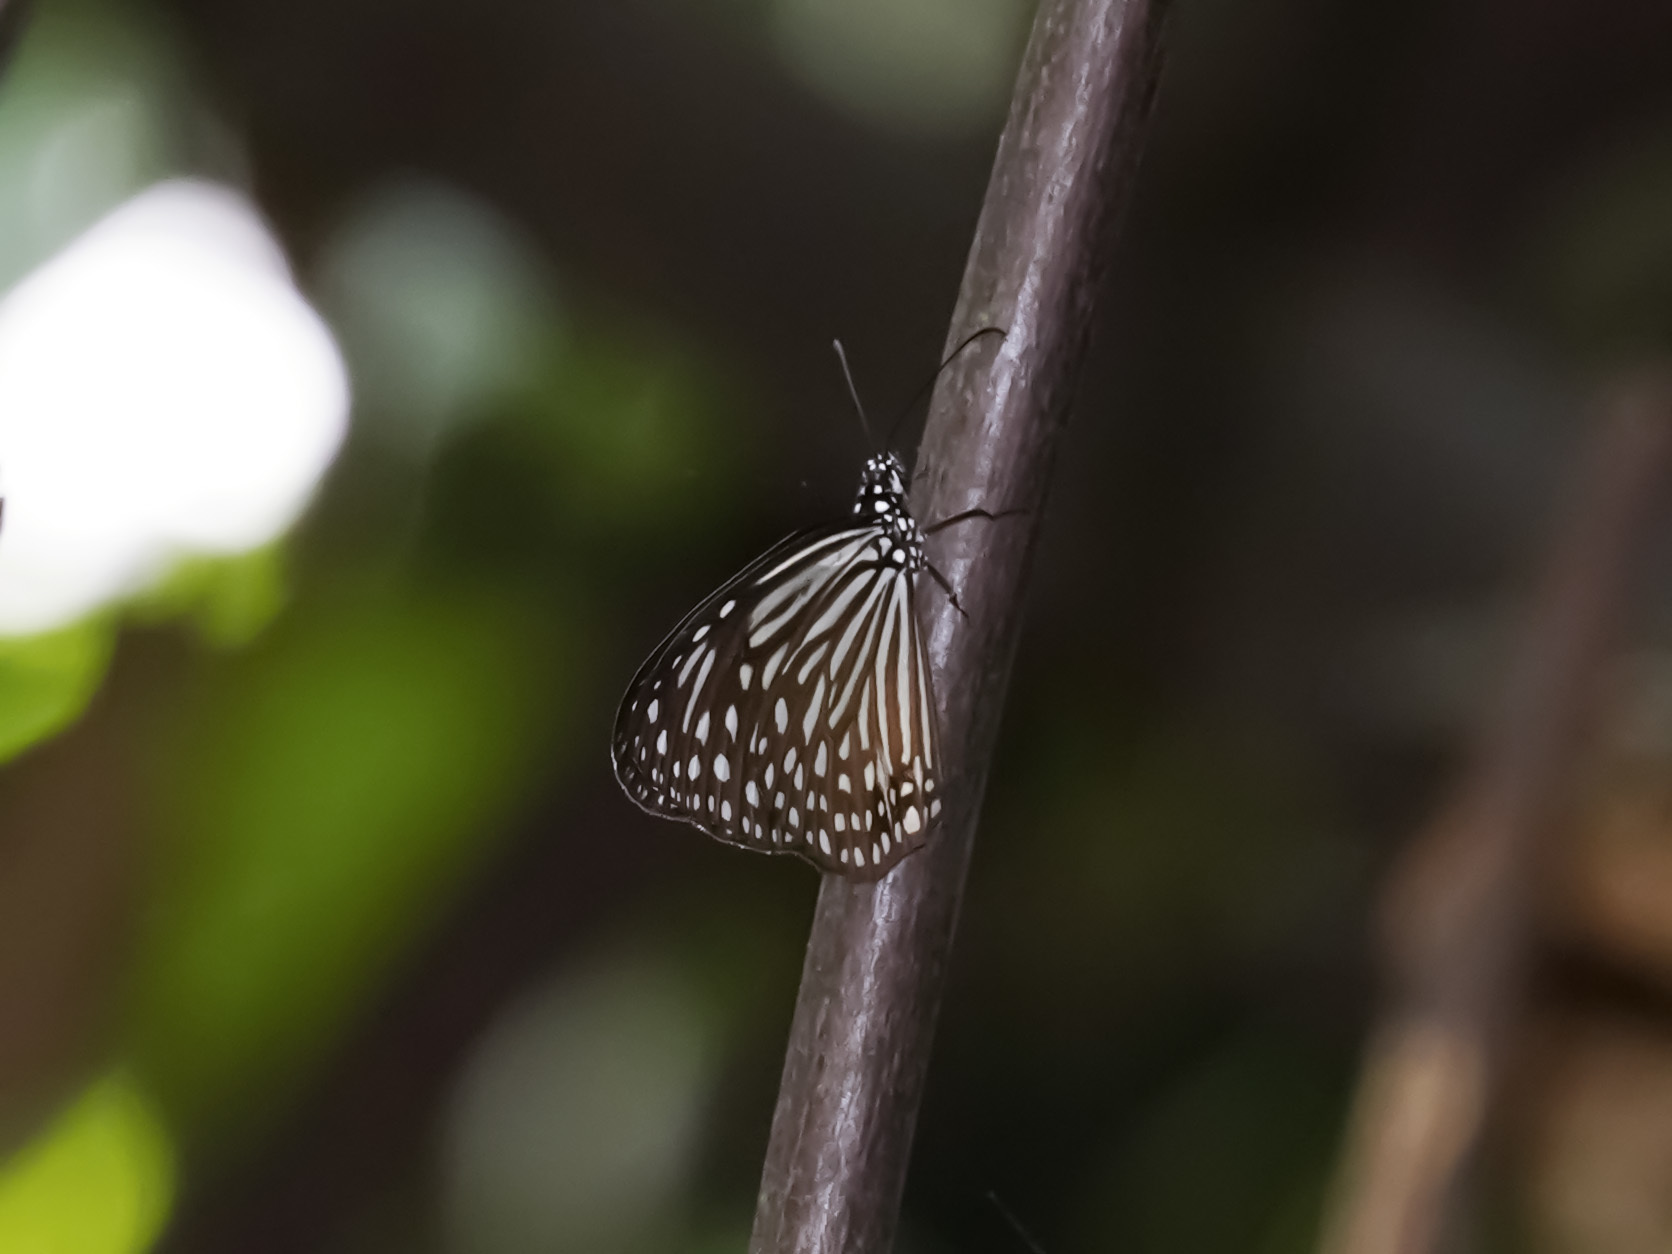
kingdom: Animalia
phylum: Arthropoda
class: Insecta
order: Lepidoptera
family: Nymphalidae
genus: Parantica
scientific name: Parantica agleoides
